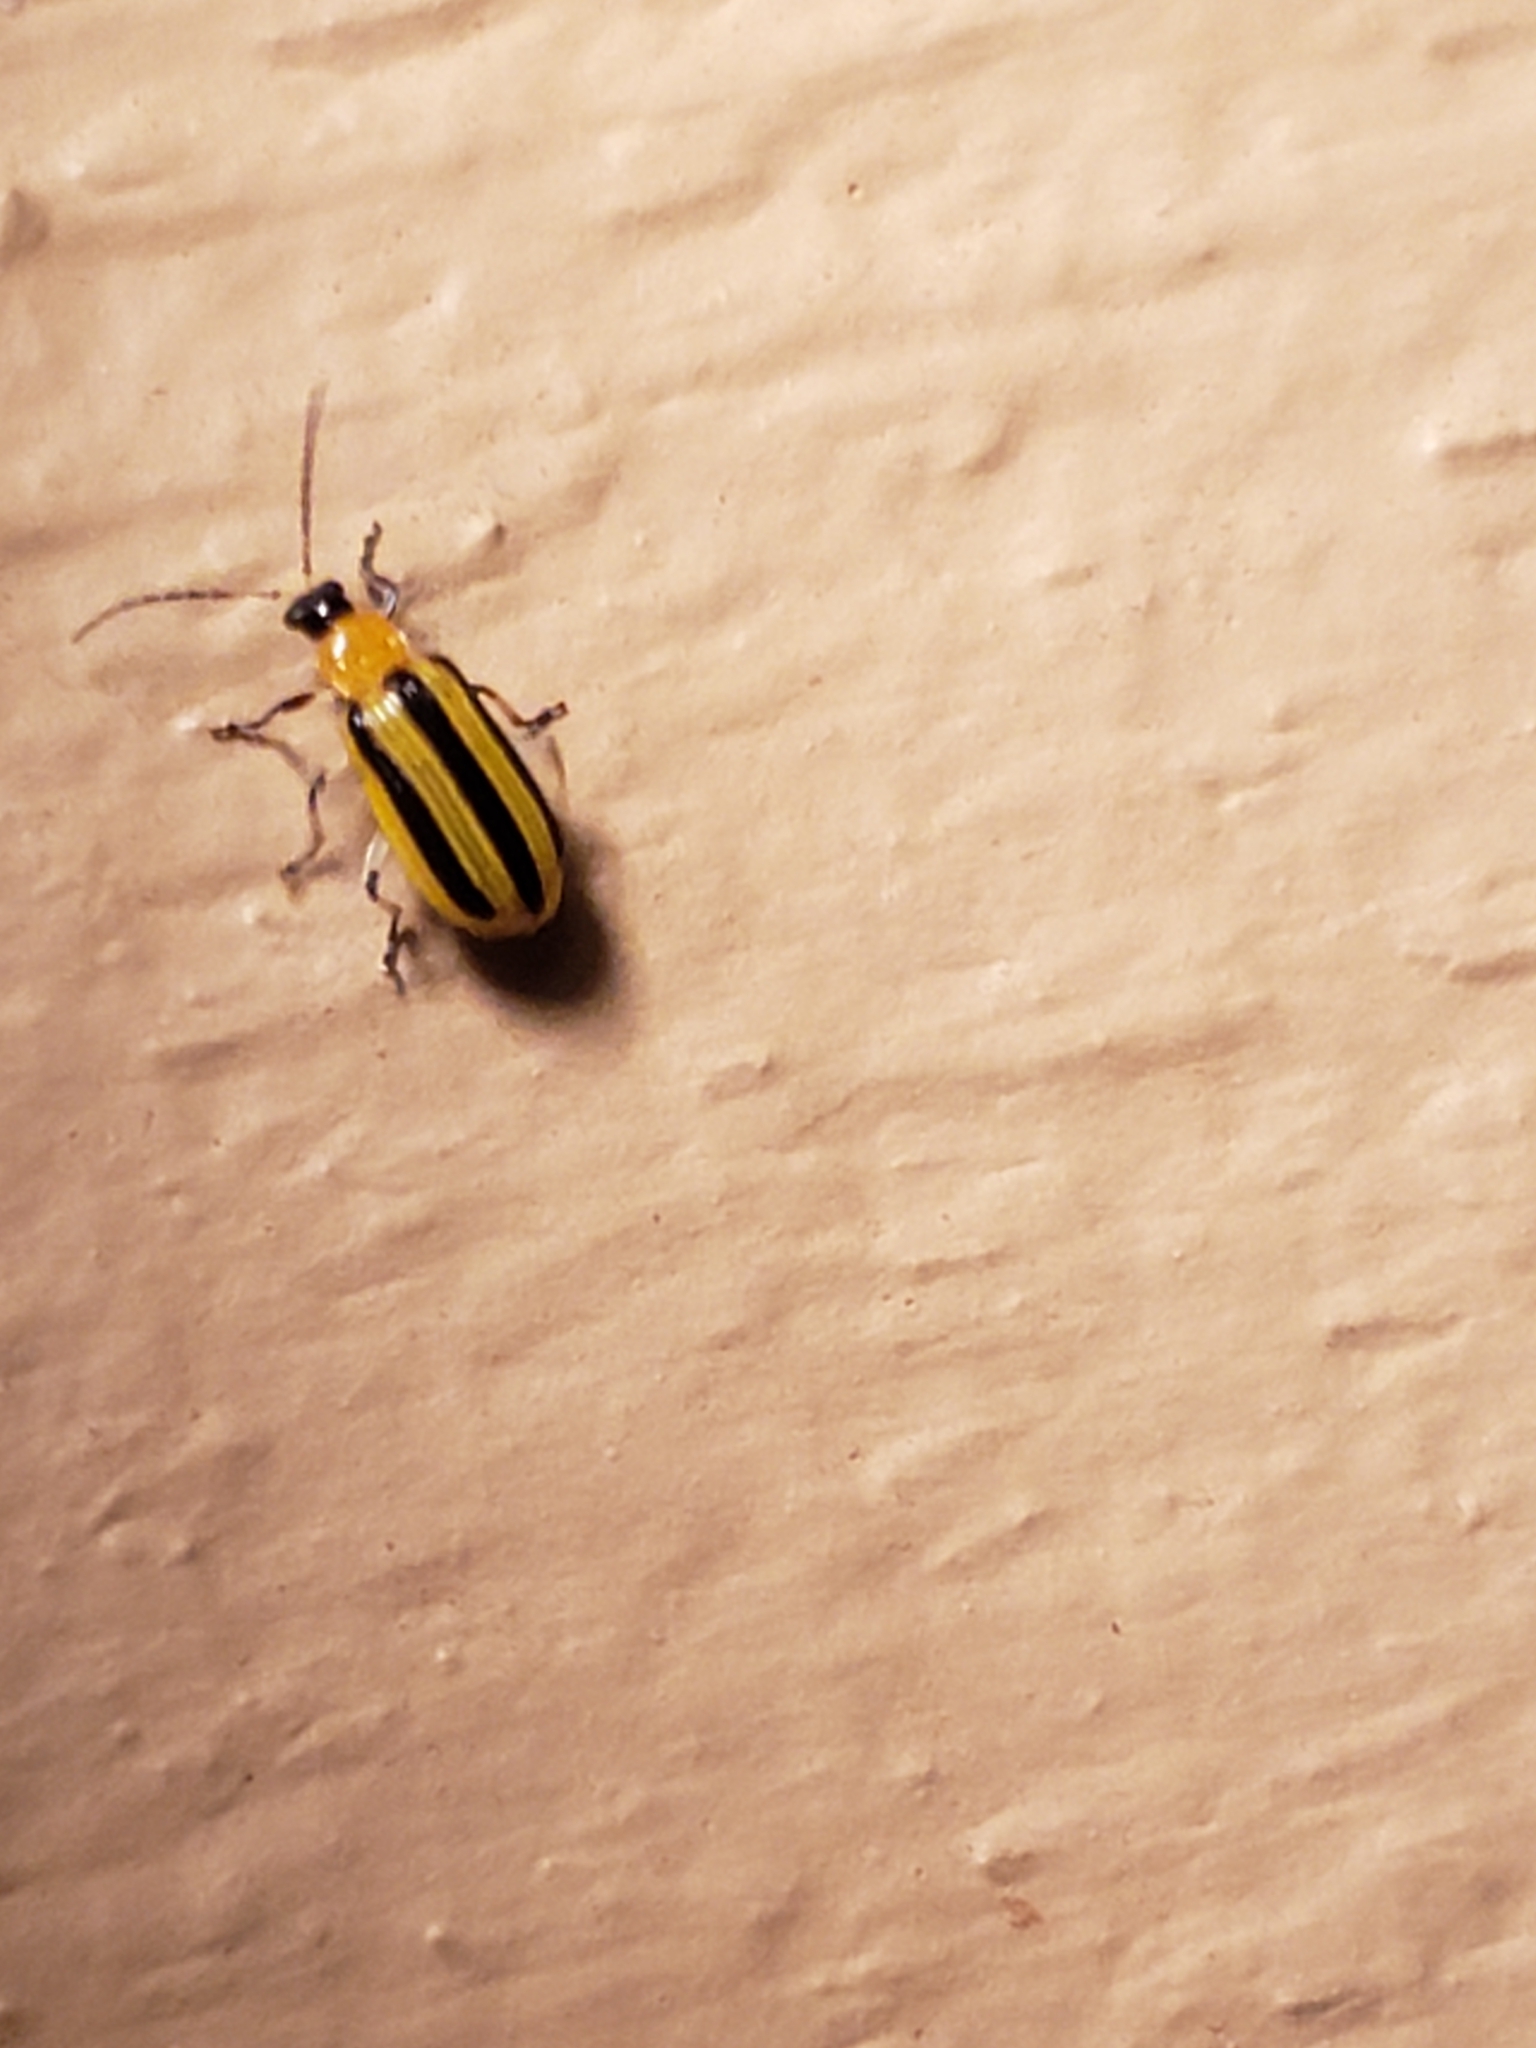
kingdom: Animalia
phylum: Arthropoda
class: Insecta
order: Coleoptera
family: Chrysomelidae
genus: Acalymma
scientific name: Acalymma vittatum
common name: Striped cucumber beetle
